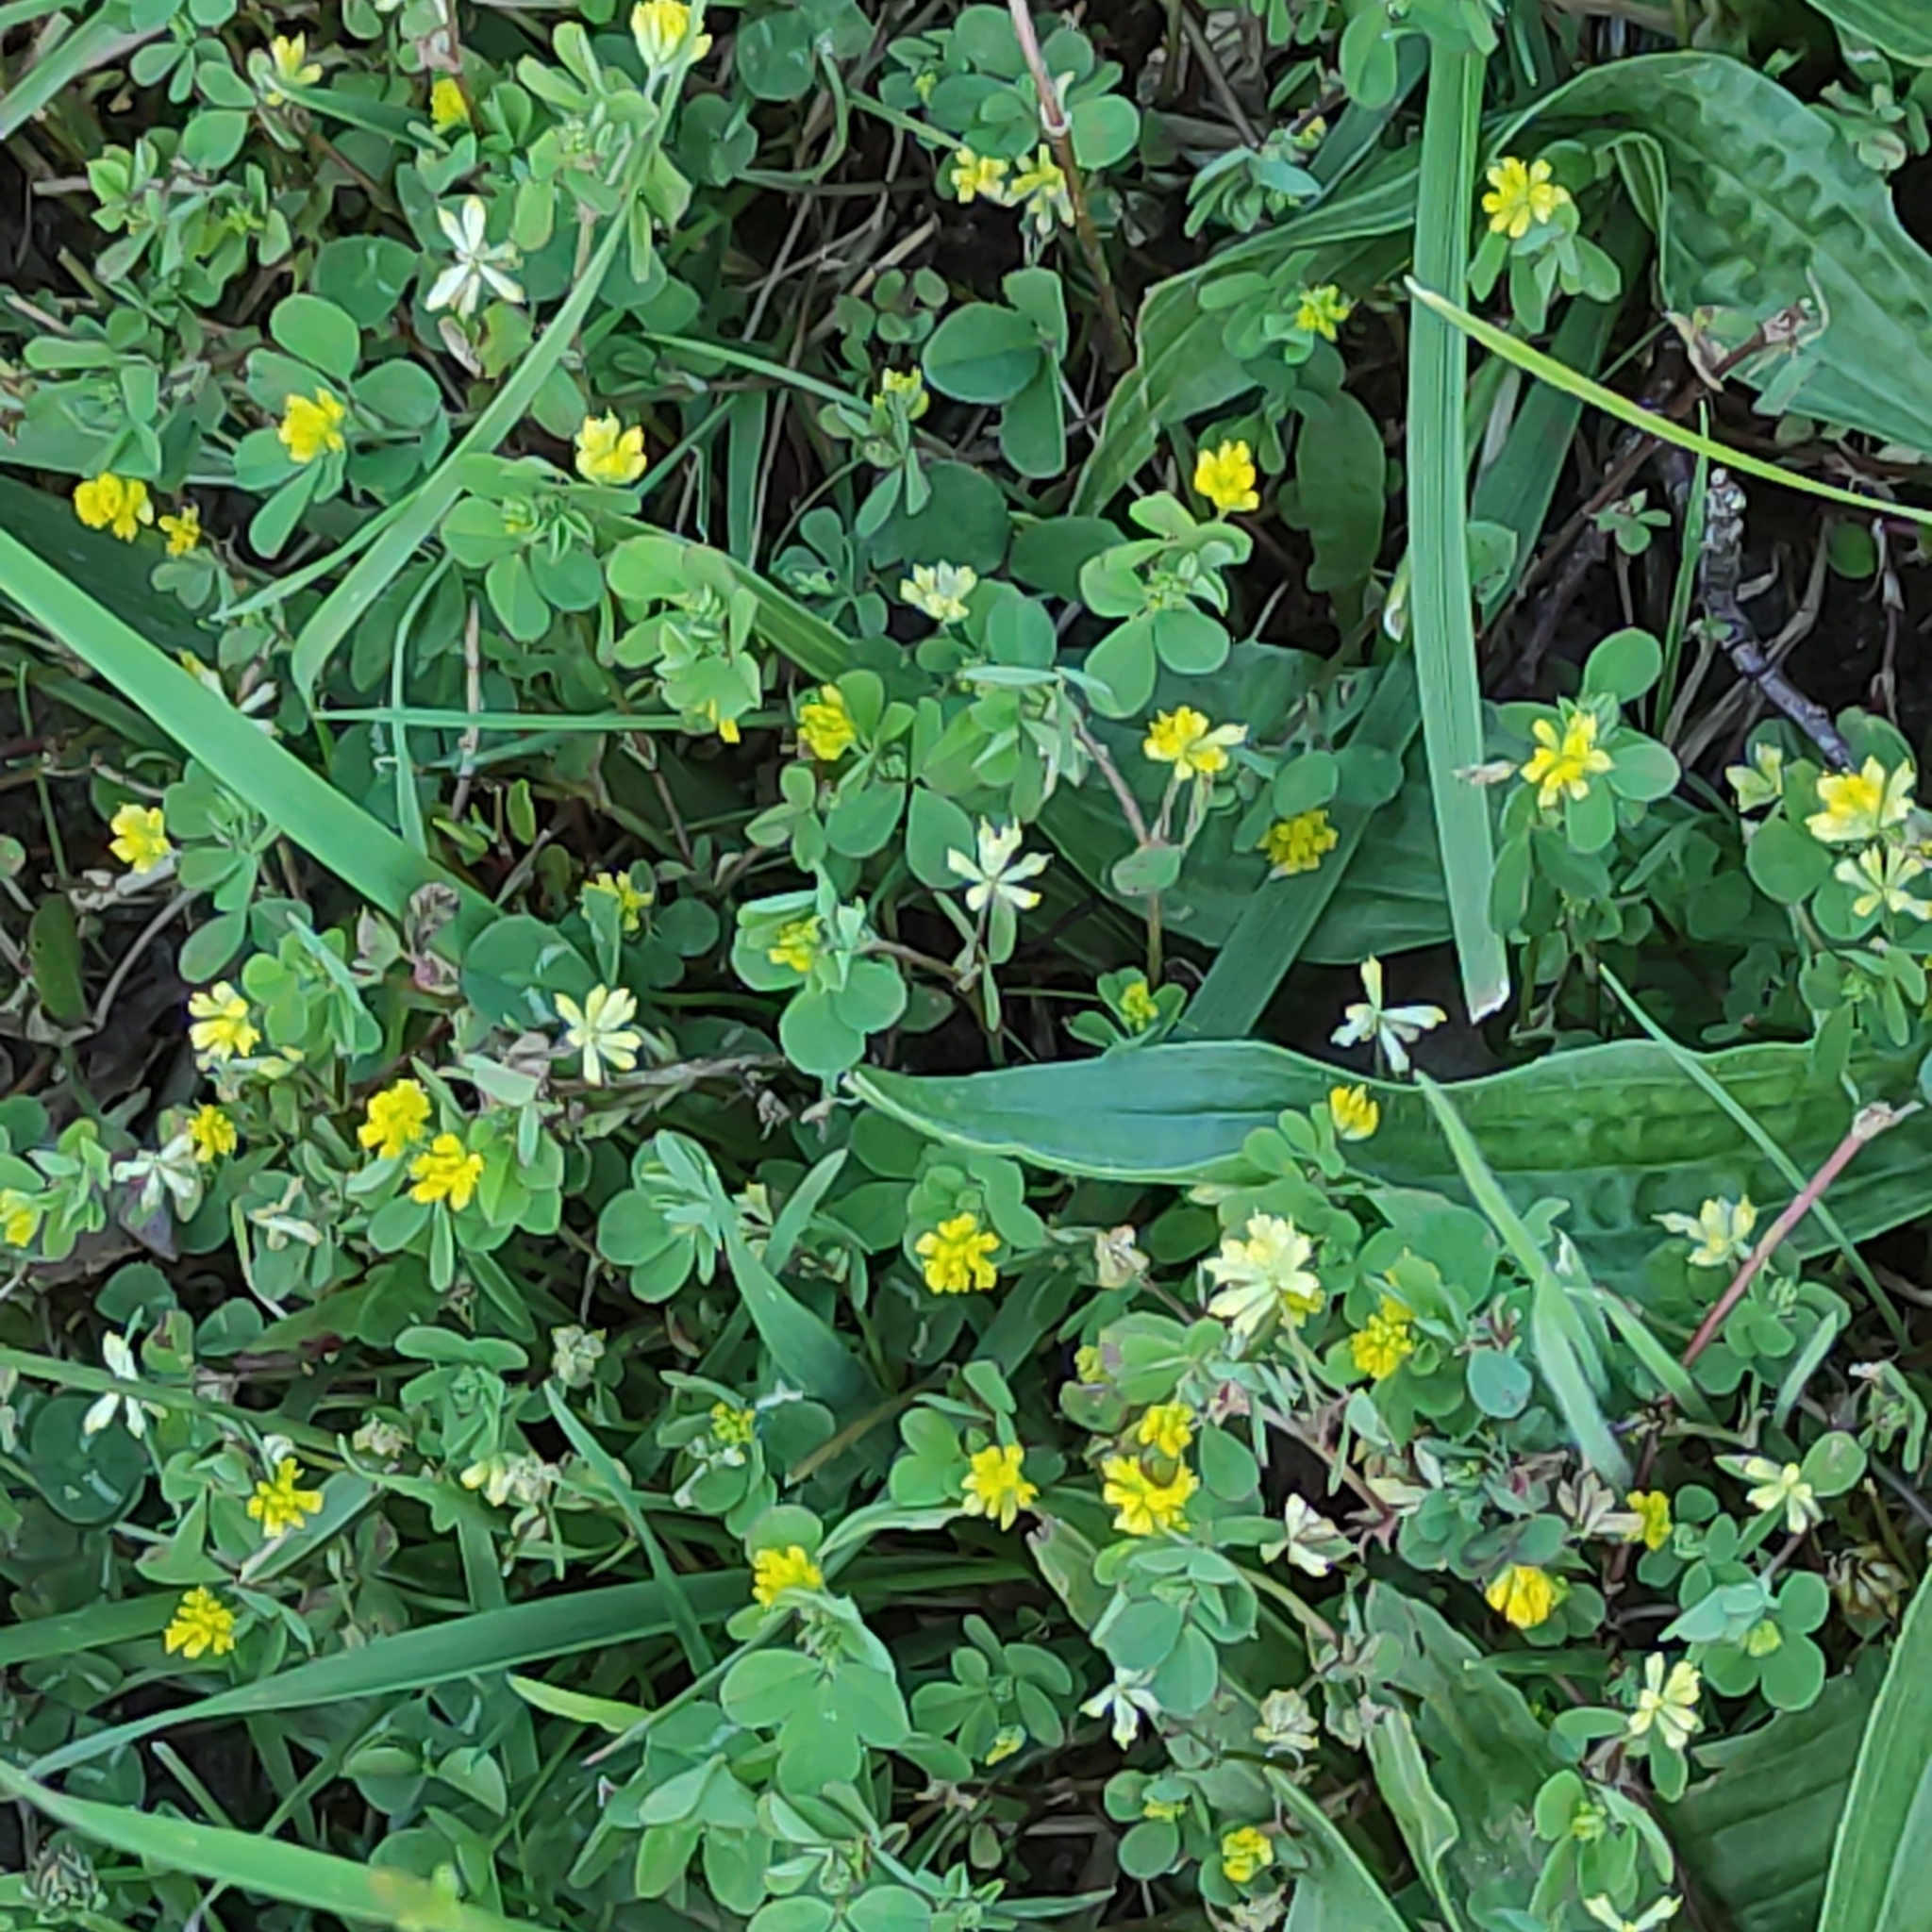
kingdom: Plantae
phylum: Tracheophyta
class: Magnoliopsida
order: Fabales
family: Fabaceae
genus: Trifolium
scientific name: Trifolium dubium
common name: Suckling clover
